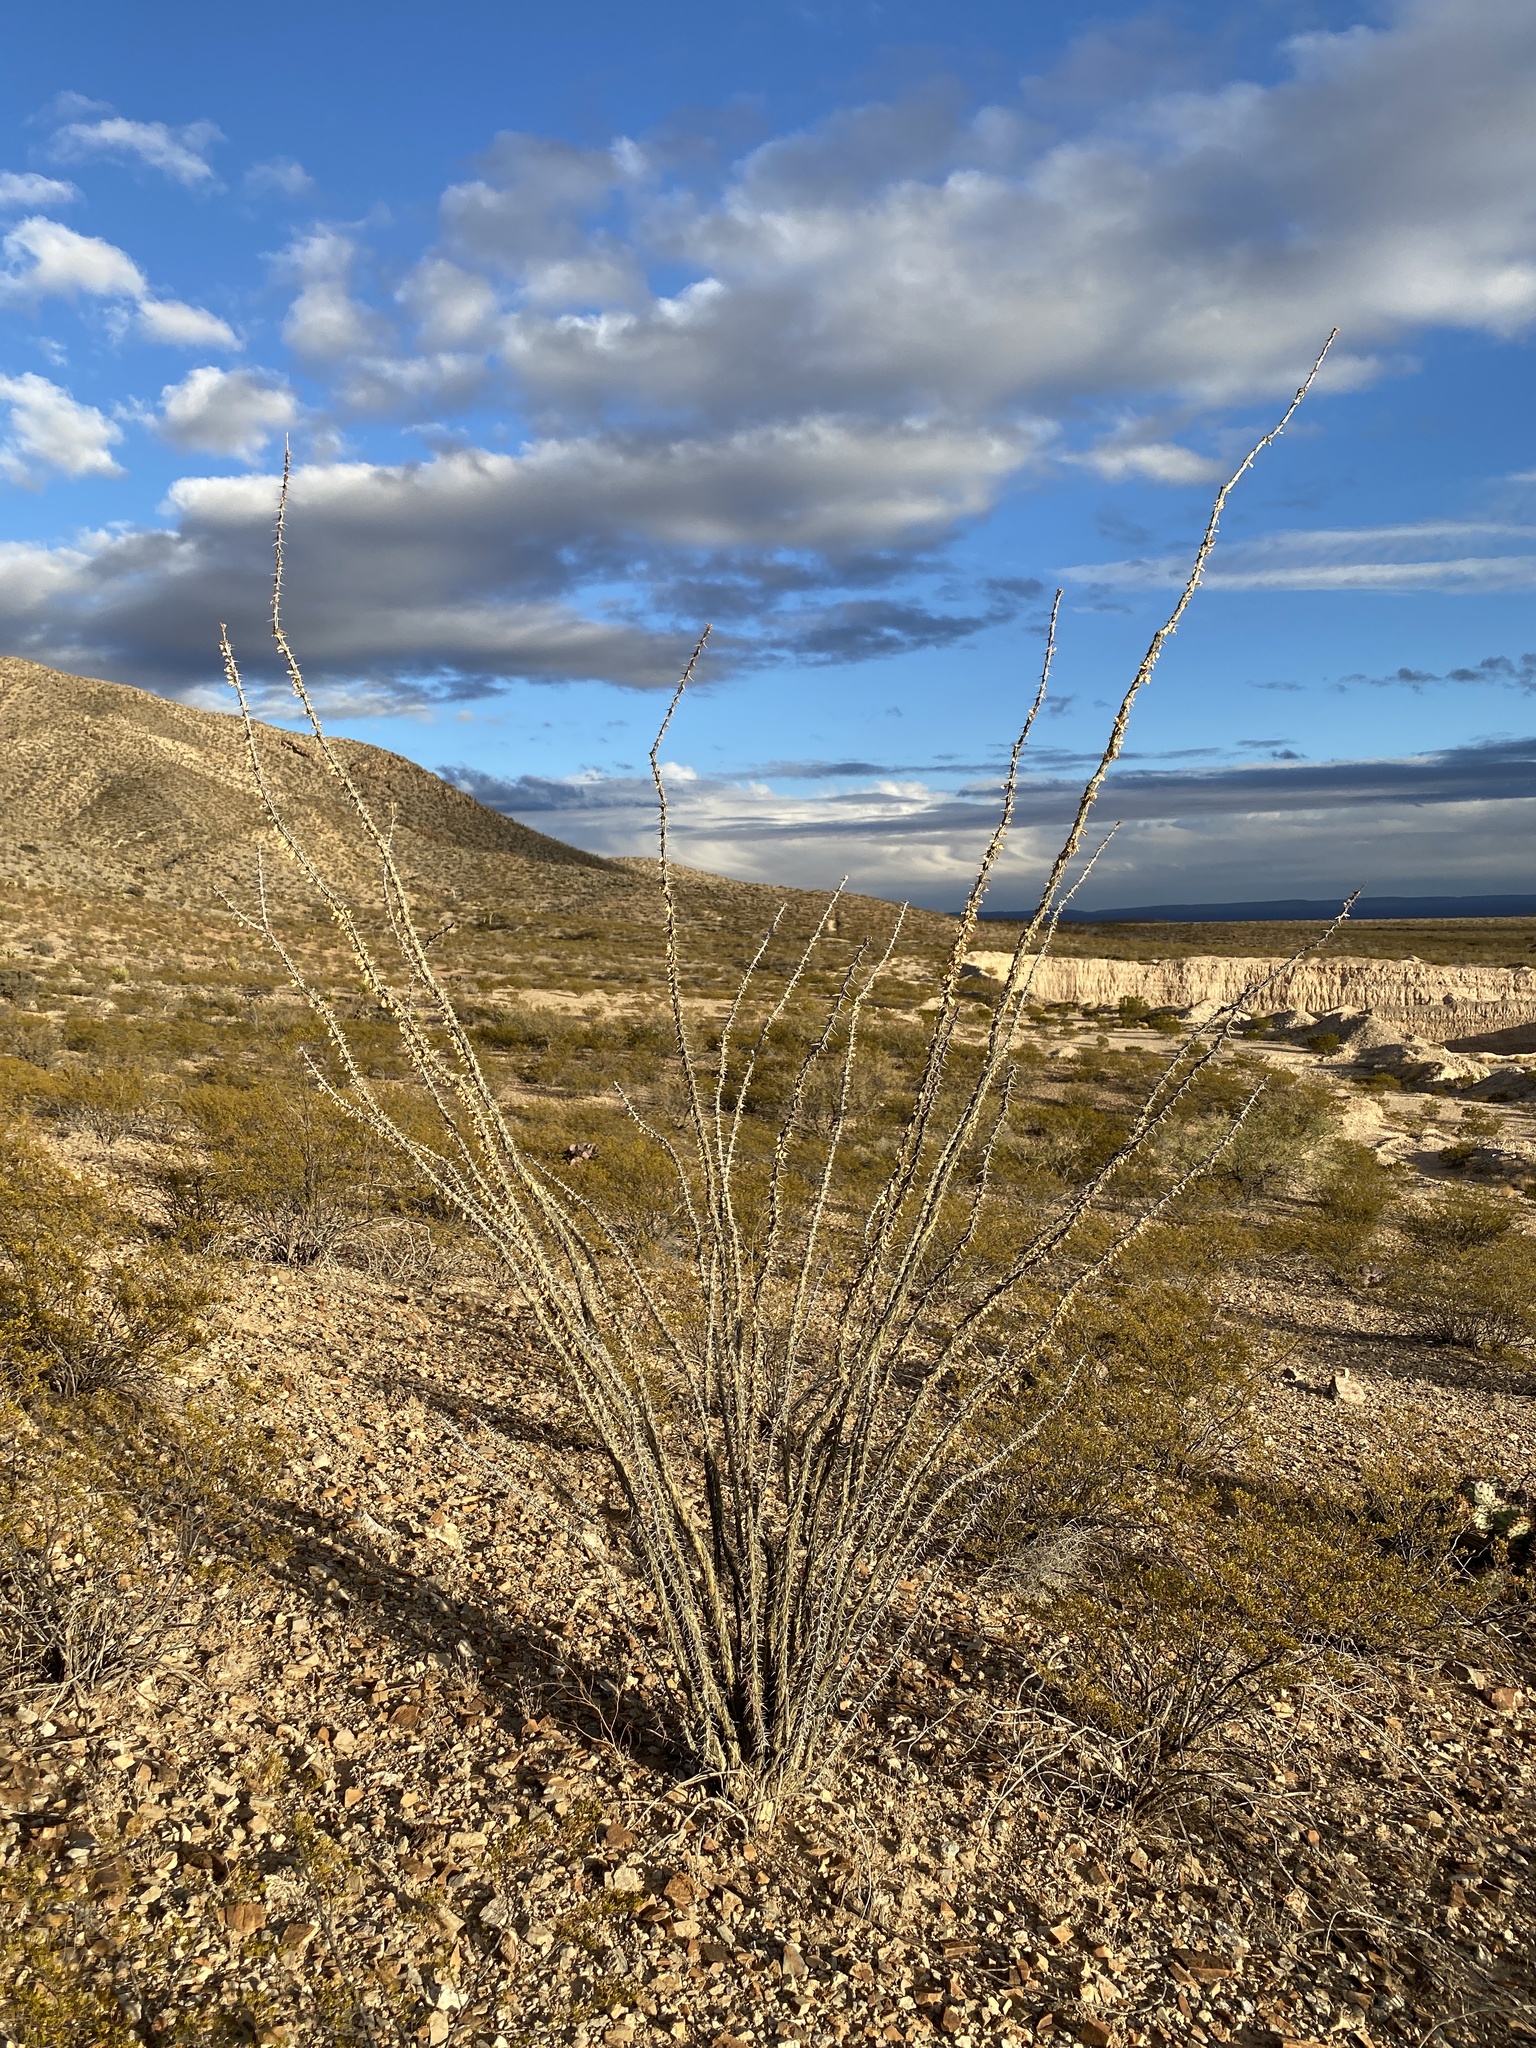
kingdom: Plantae
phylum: Tracheophyta
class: Magnoliopsida
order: Ericales
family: Fouquieriaceae
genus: Fouquieria
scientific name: Fouquieria splendens
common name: Vine-cactus
